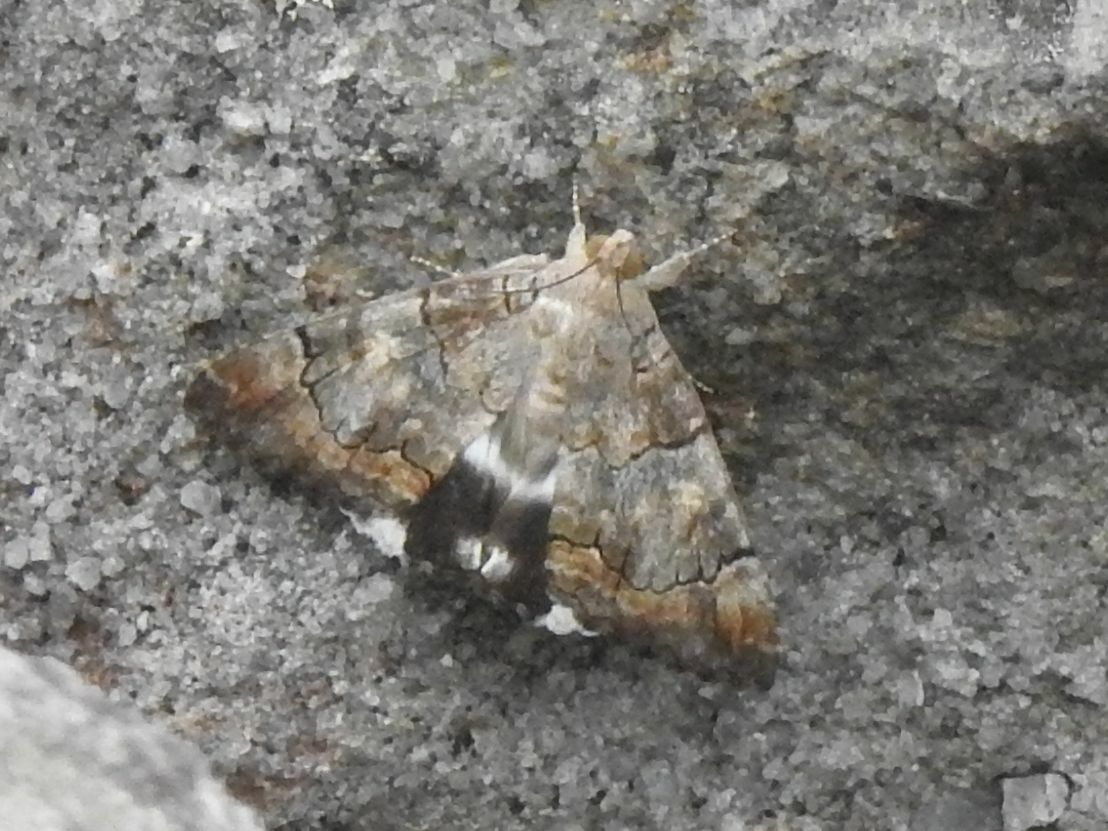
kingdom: Animalia
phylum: Arthropoda
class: Insecta
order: Lepidoptera
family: Erebidae
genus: Achaea
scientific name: Achaea catella
